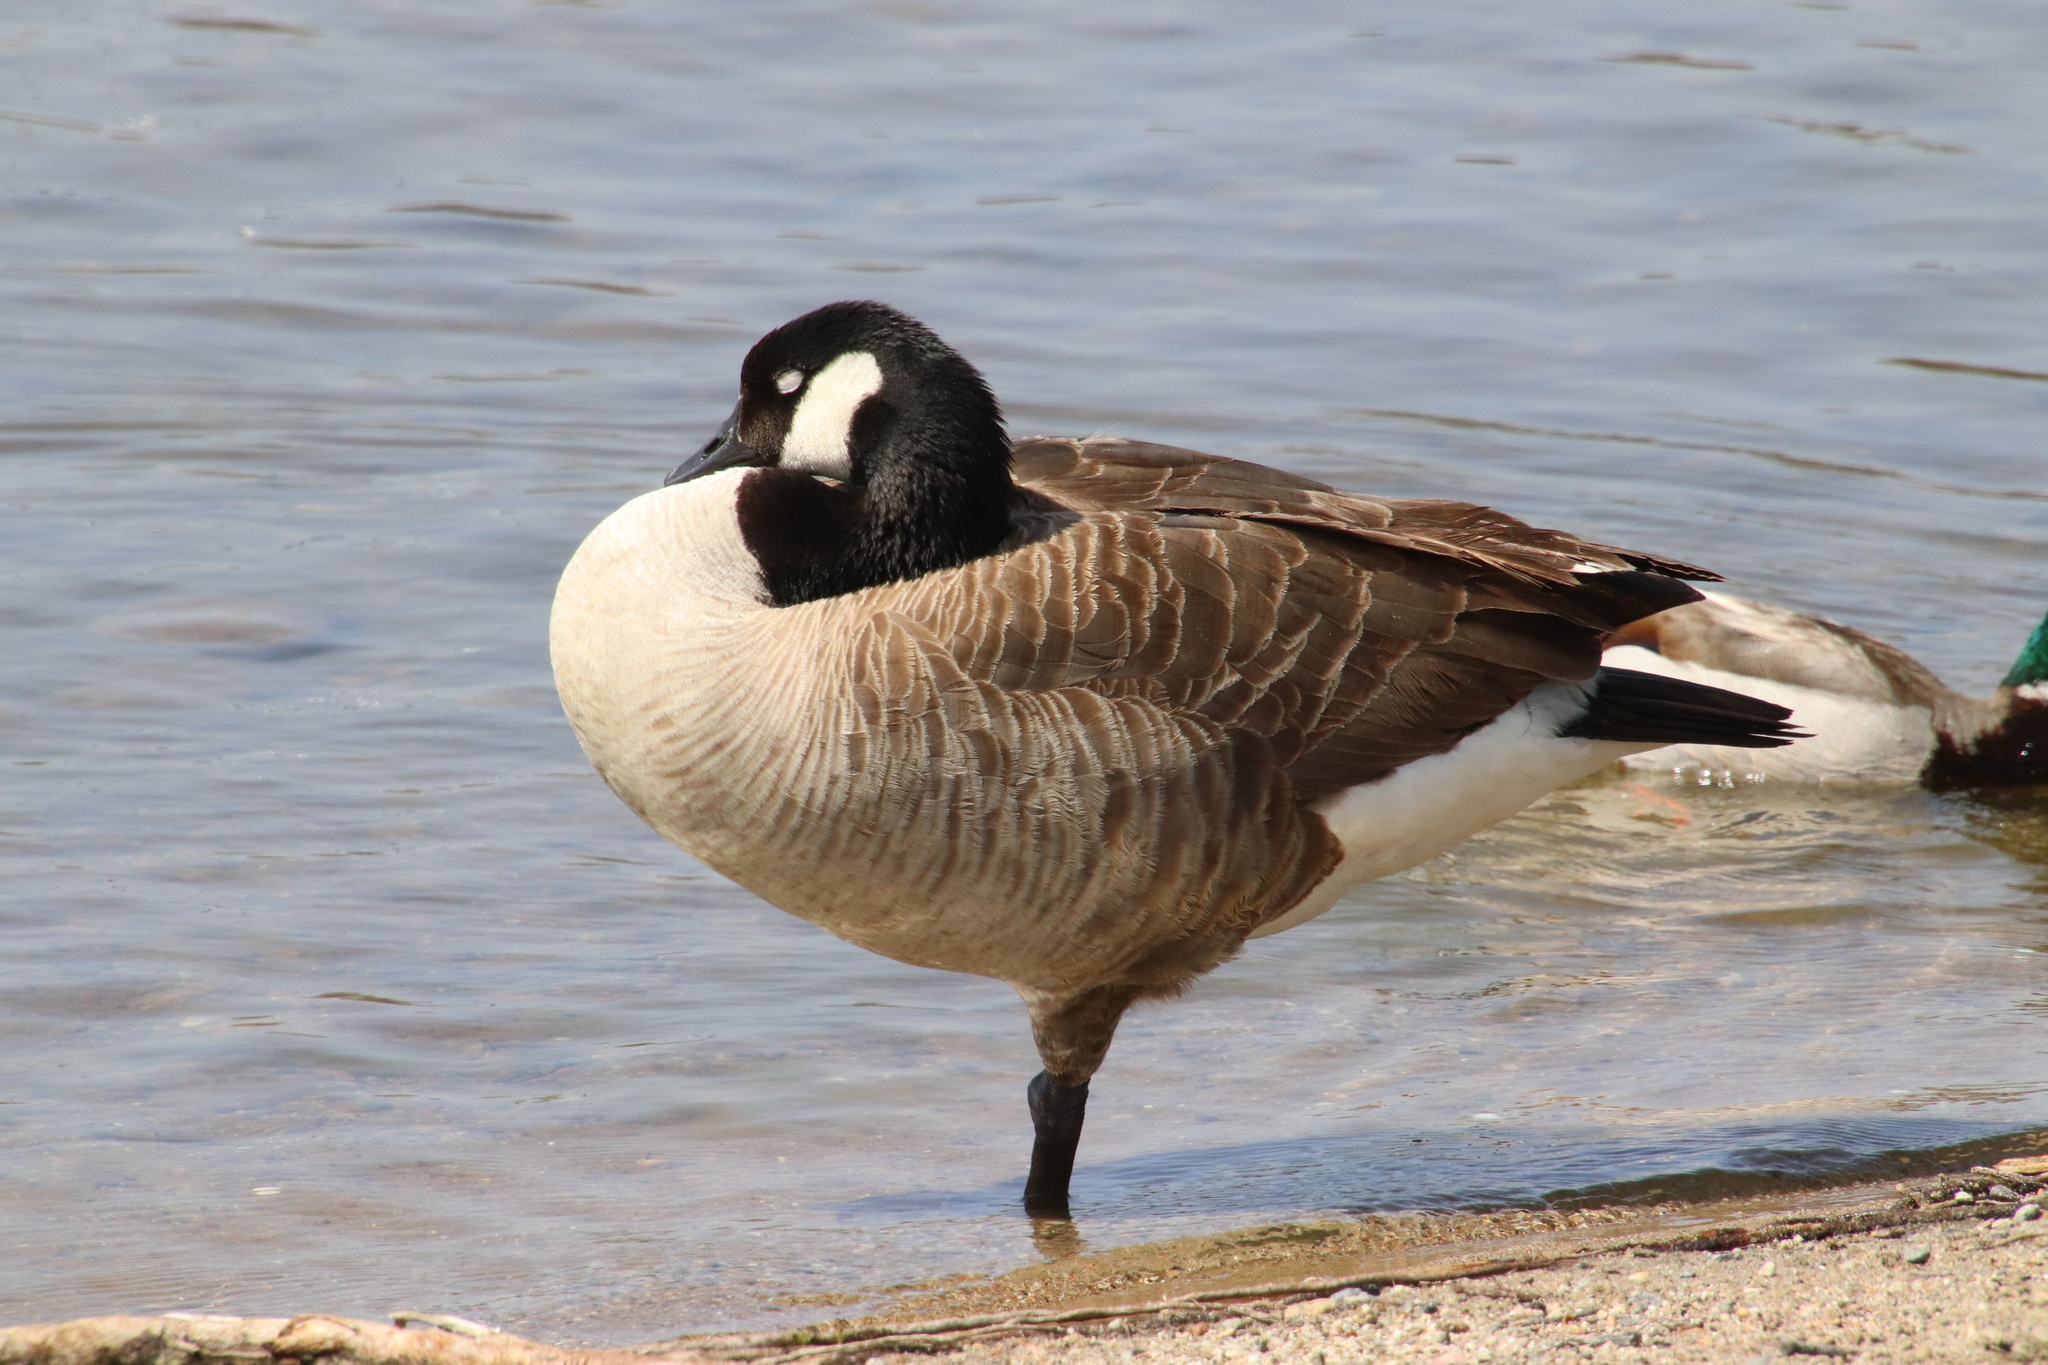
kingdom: Animalia
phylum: Chordata
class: Aves
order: Anseriformes
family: Anatidae
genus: Branta
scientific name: Branta canadensis
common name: Canada goose
